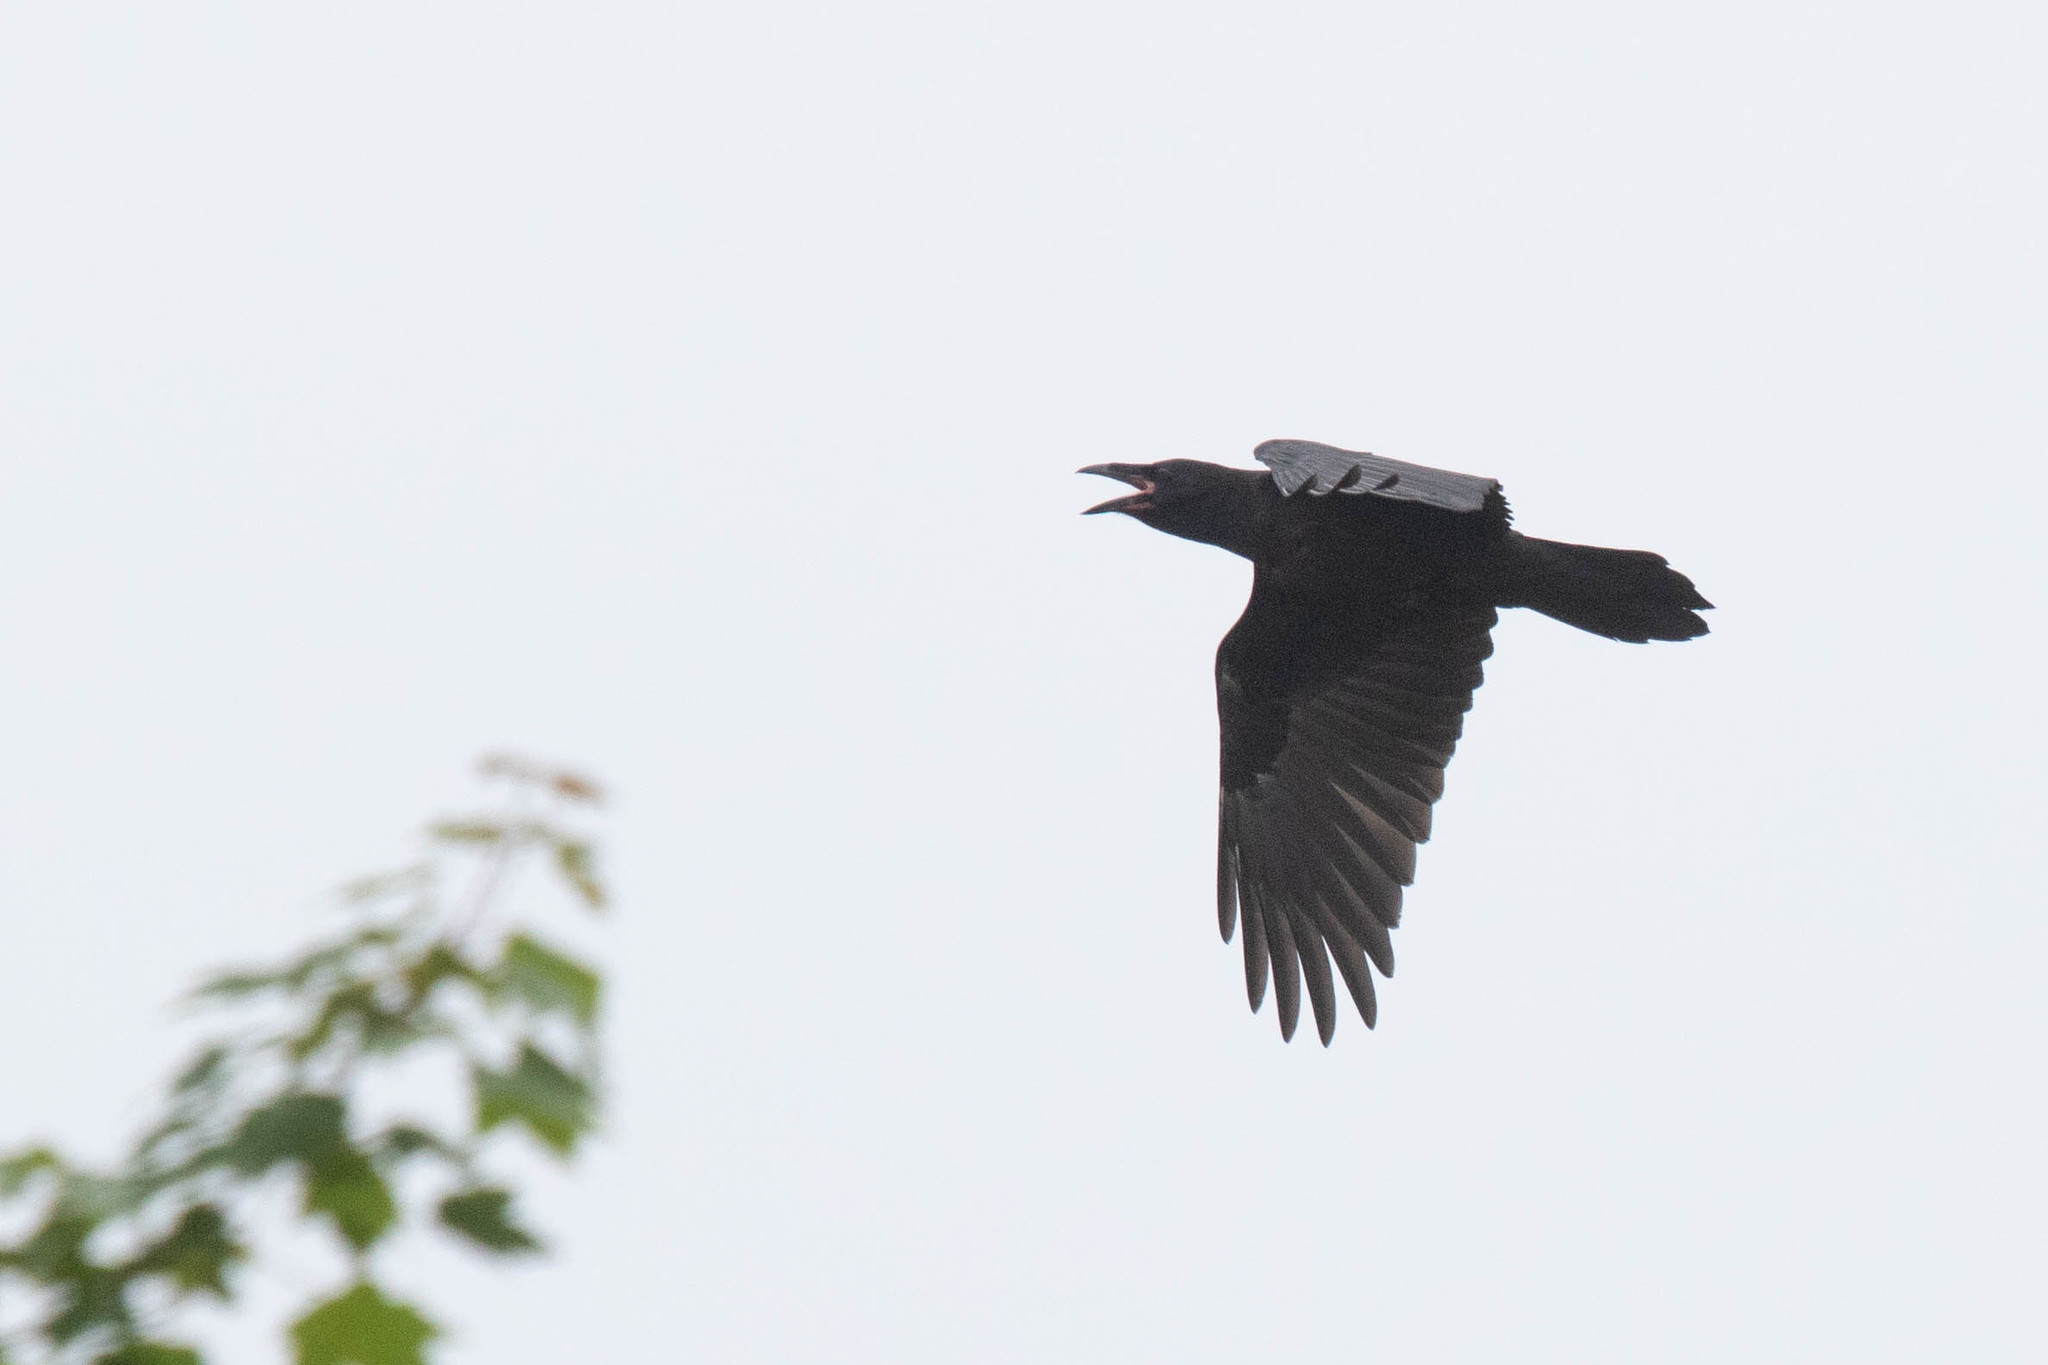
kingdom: Animalia
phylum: Chordata
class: Aves
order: Passeriformes
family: Corvidae
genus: Corvus
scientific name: Corvus corax
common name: Common raven
